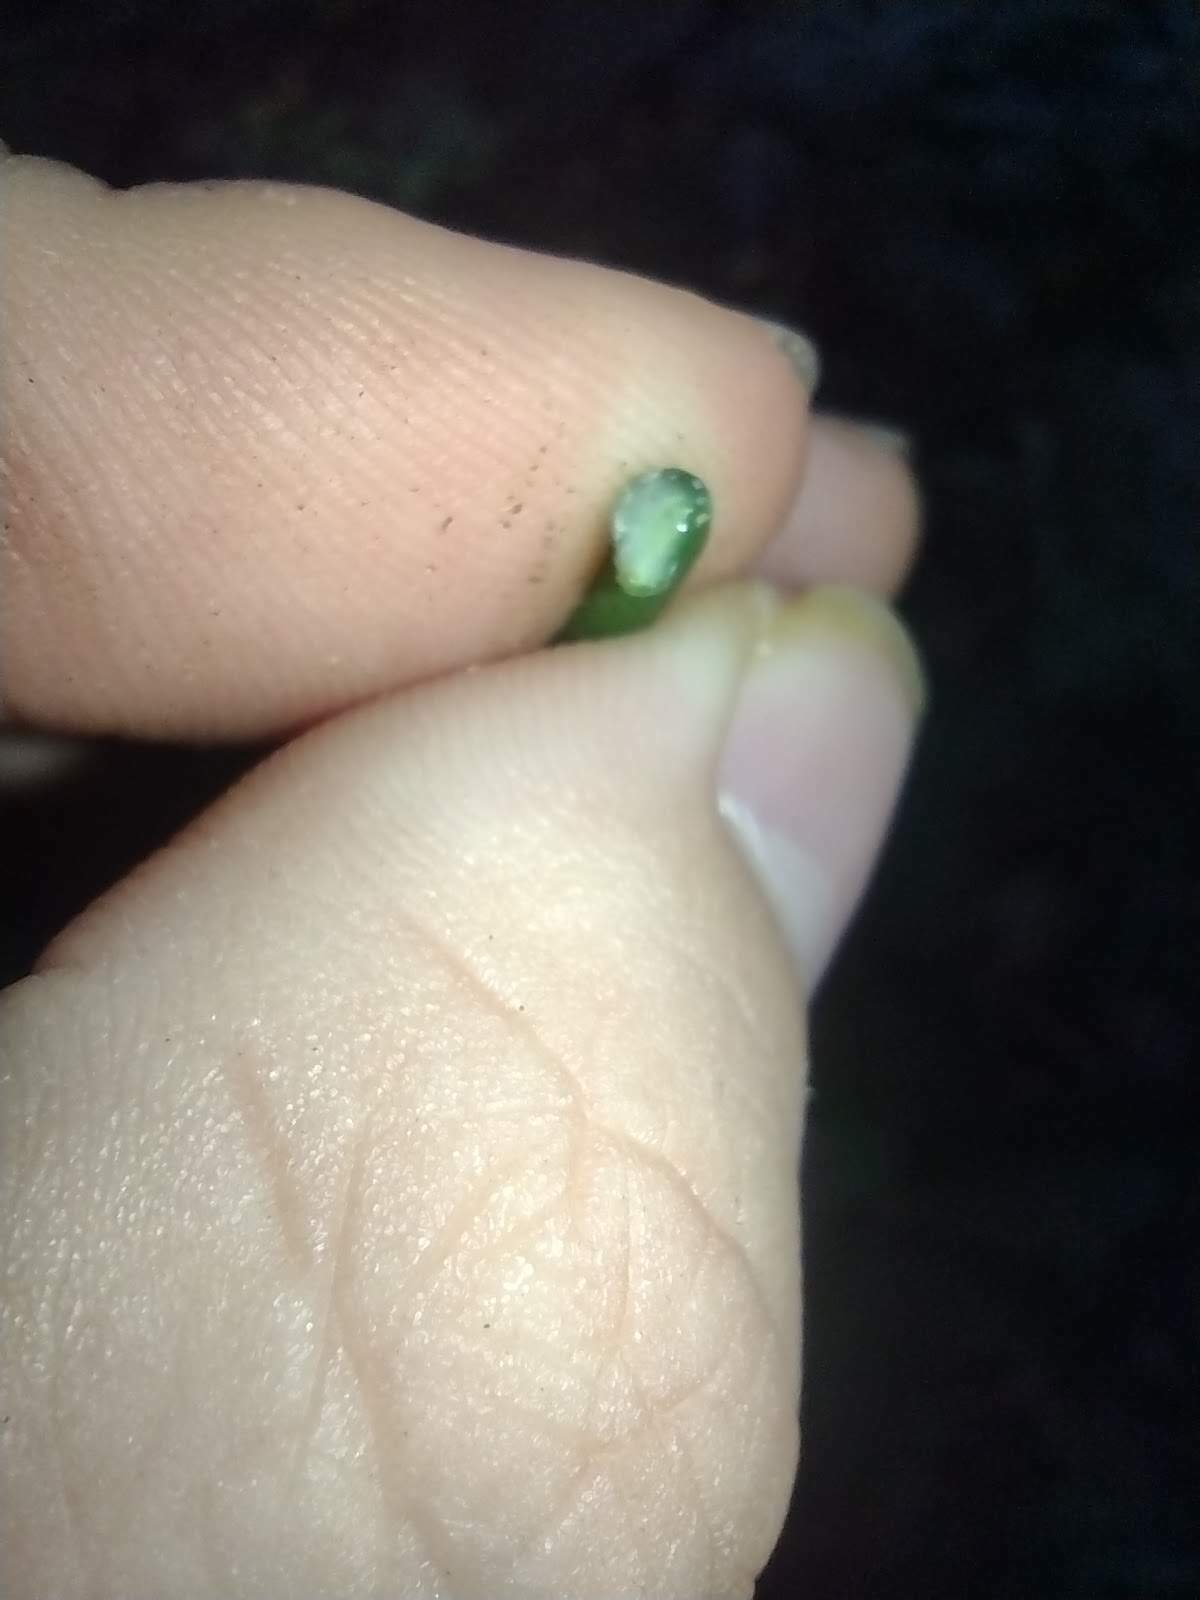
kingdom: Plantae
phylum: Tracheophyta
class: Magnoliopsida
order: Ericales
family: Sapotaceae
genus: Mimusops
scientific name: Mimusops elengi
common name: Spanish cherry
